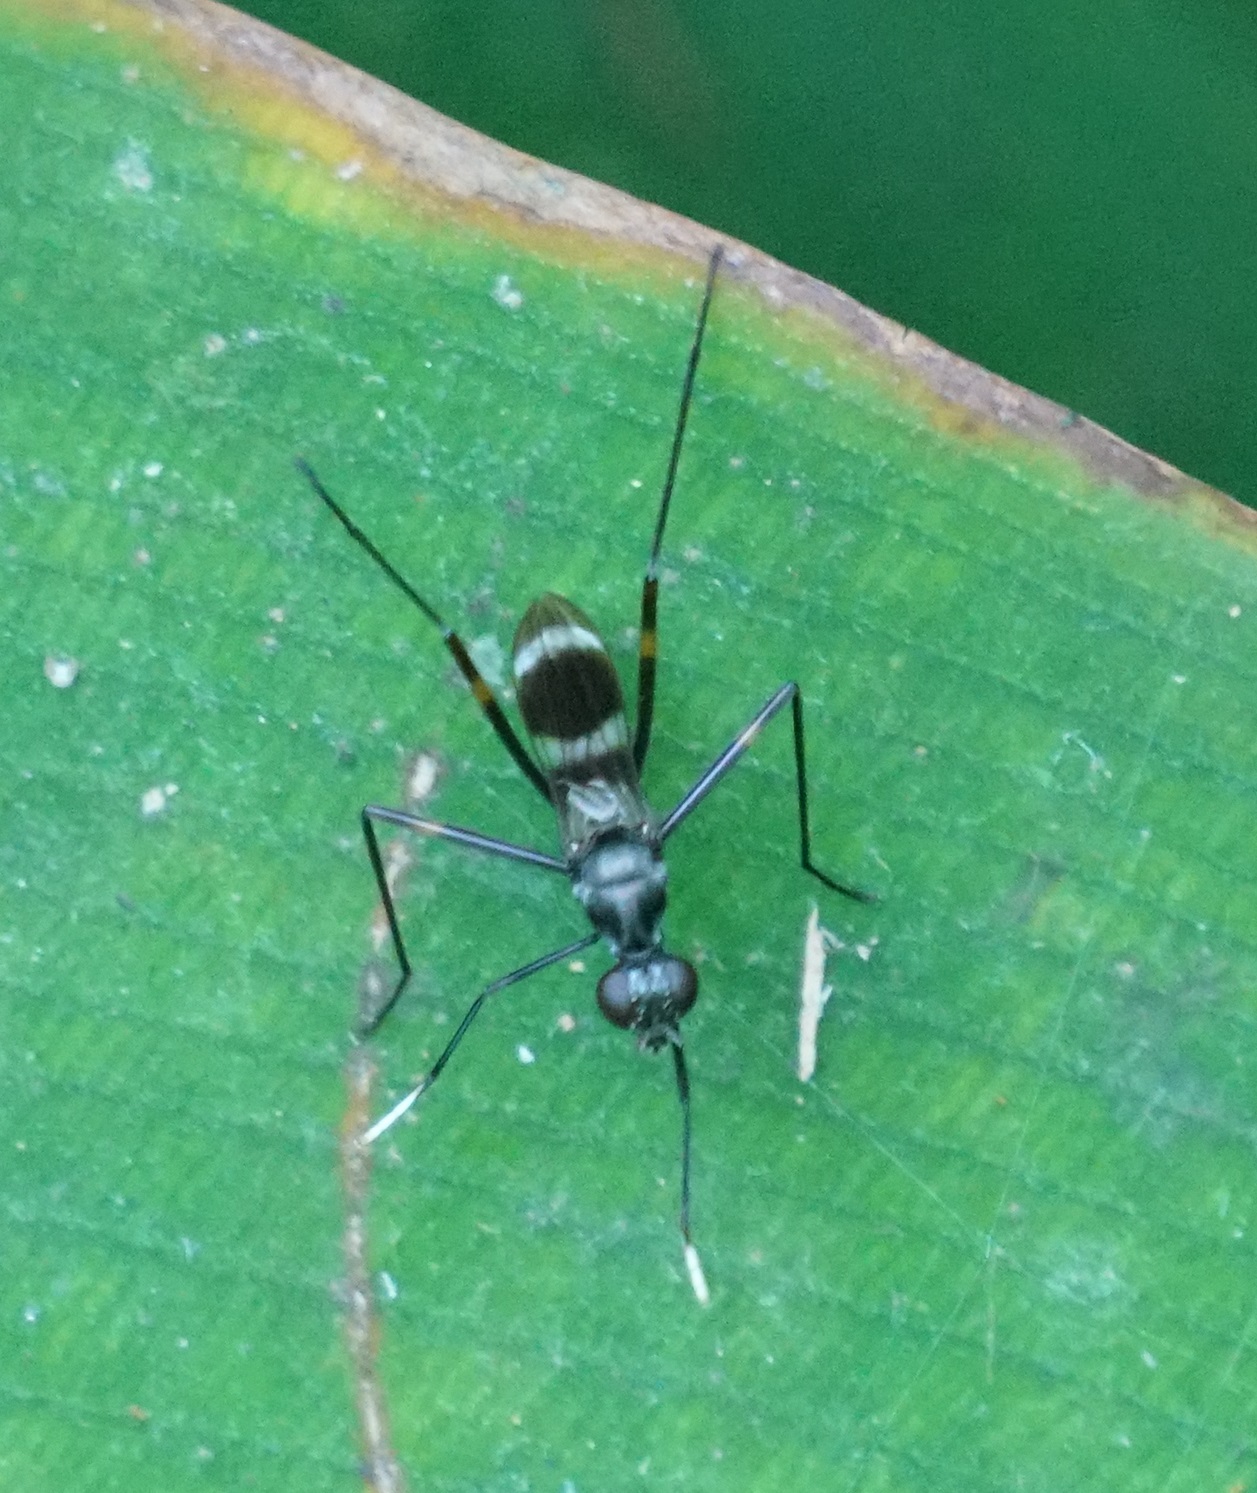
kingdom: Animalia
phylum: Arthropoda
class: Insecta
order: Diptera
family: Micropezidae
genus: Mimegralla
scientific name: Mimegralla australica
